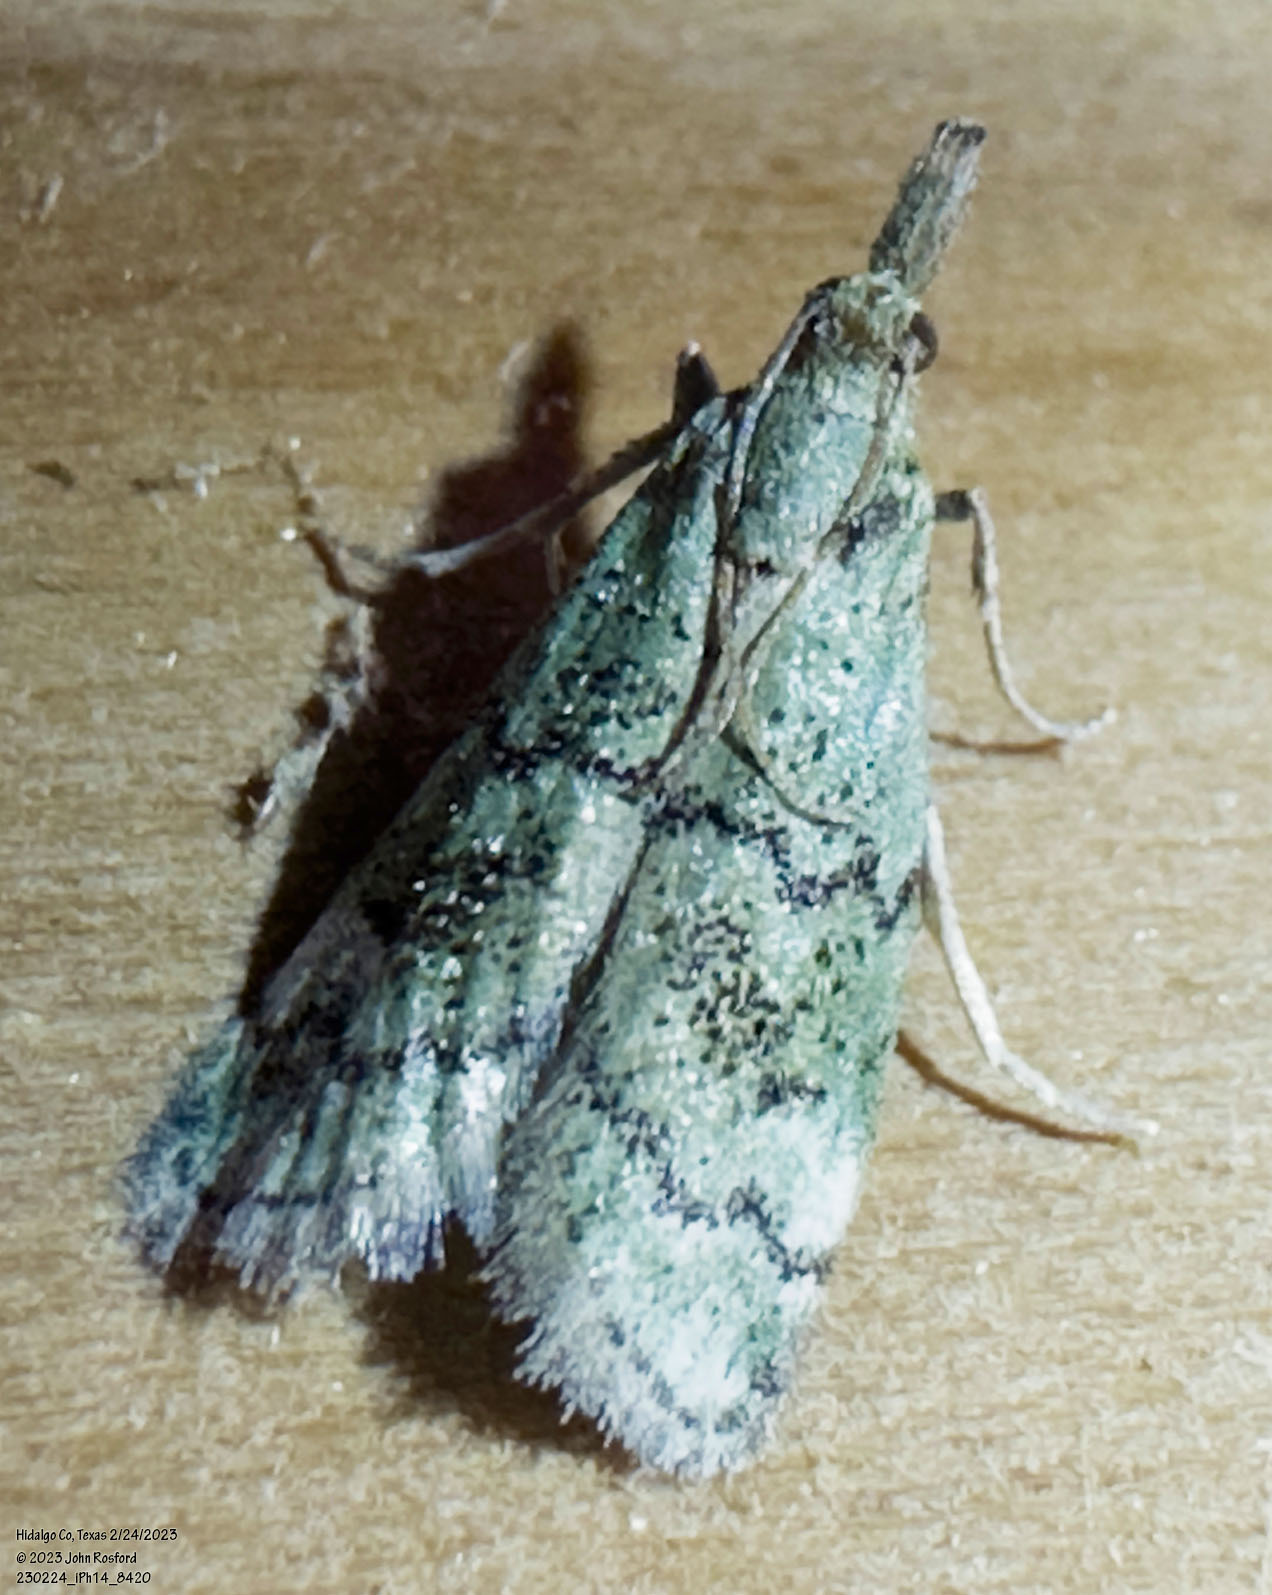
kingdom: Animalia
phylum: Arthropoda
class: Insecta
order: Lepidoptera
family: Pyralidae
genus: Cacotherapia
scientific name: Cacotherapia flexilinealis
